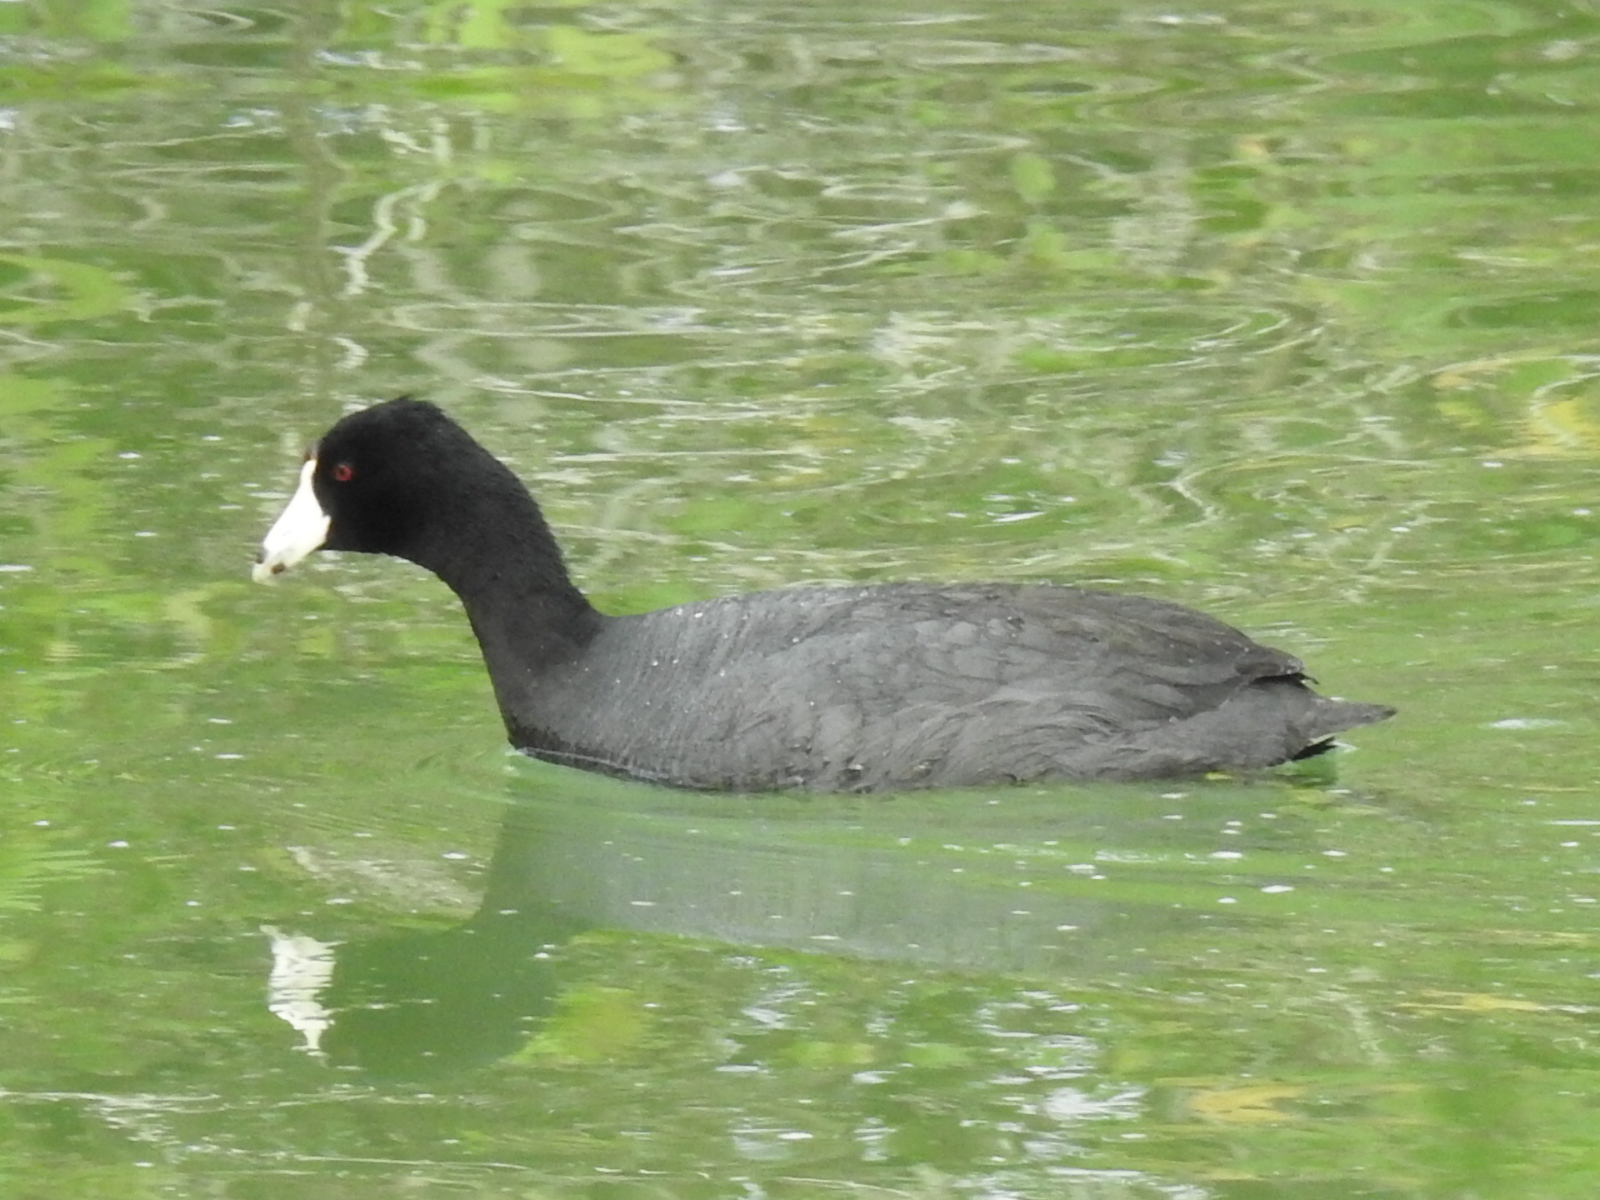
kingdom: Animalia
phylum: Chordata
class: Aves
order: Gruiformes
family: Rallidae
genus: Fulica
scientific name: Fulica americana
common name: American coot
